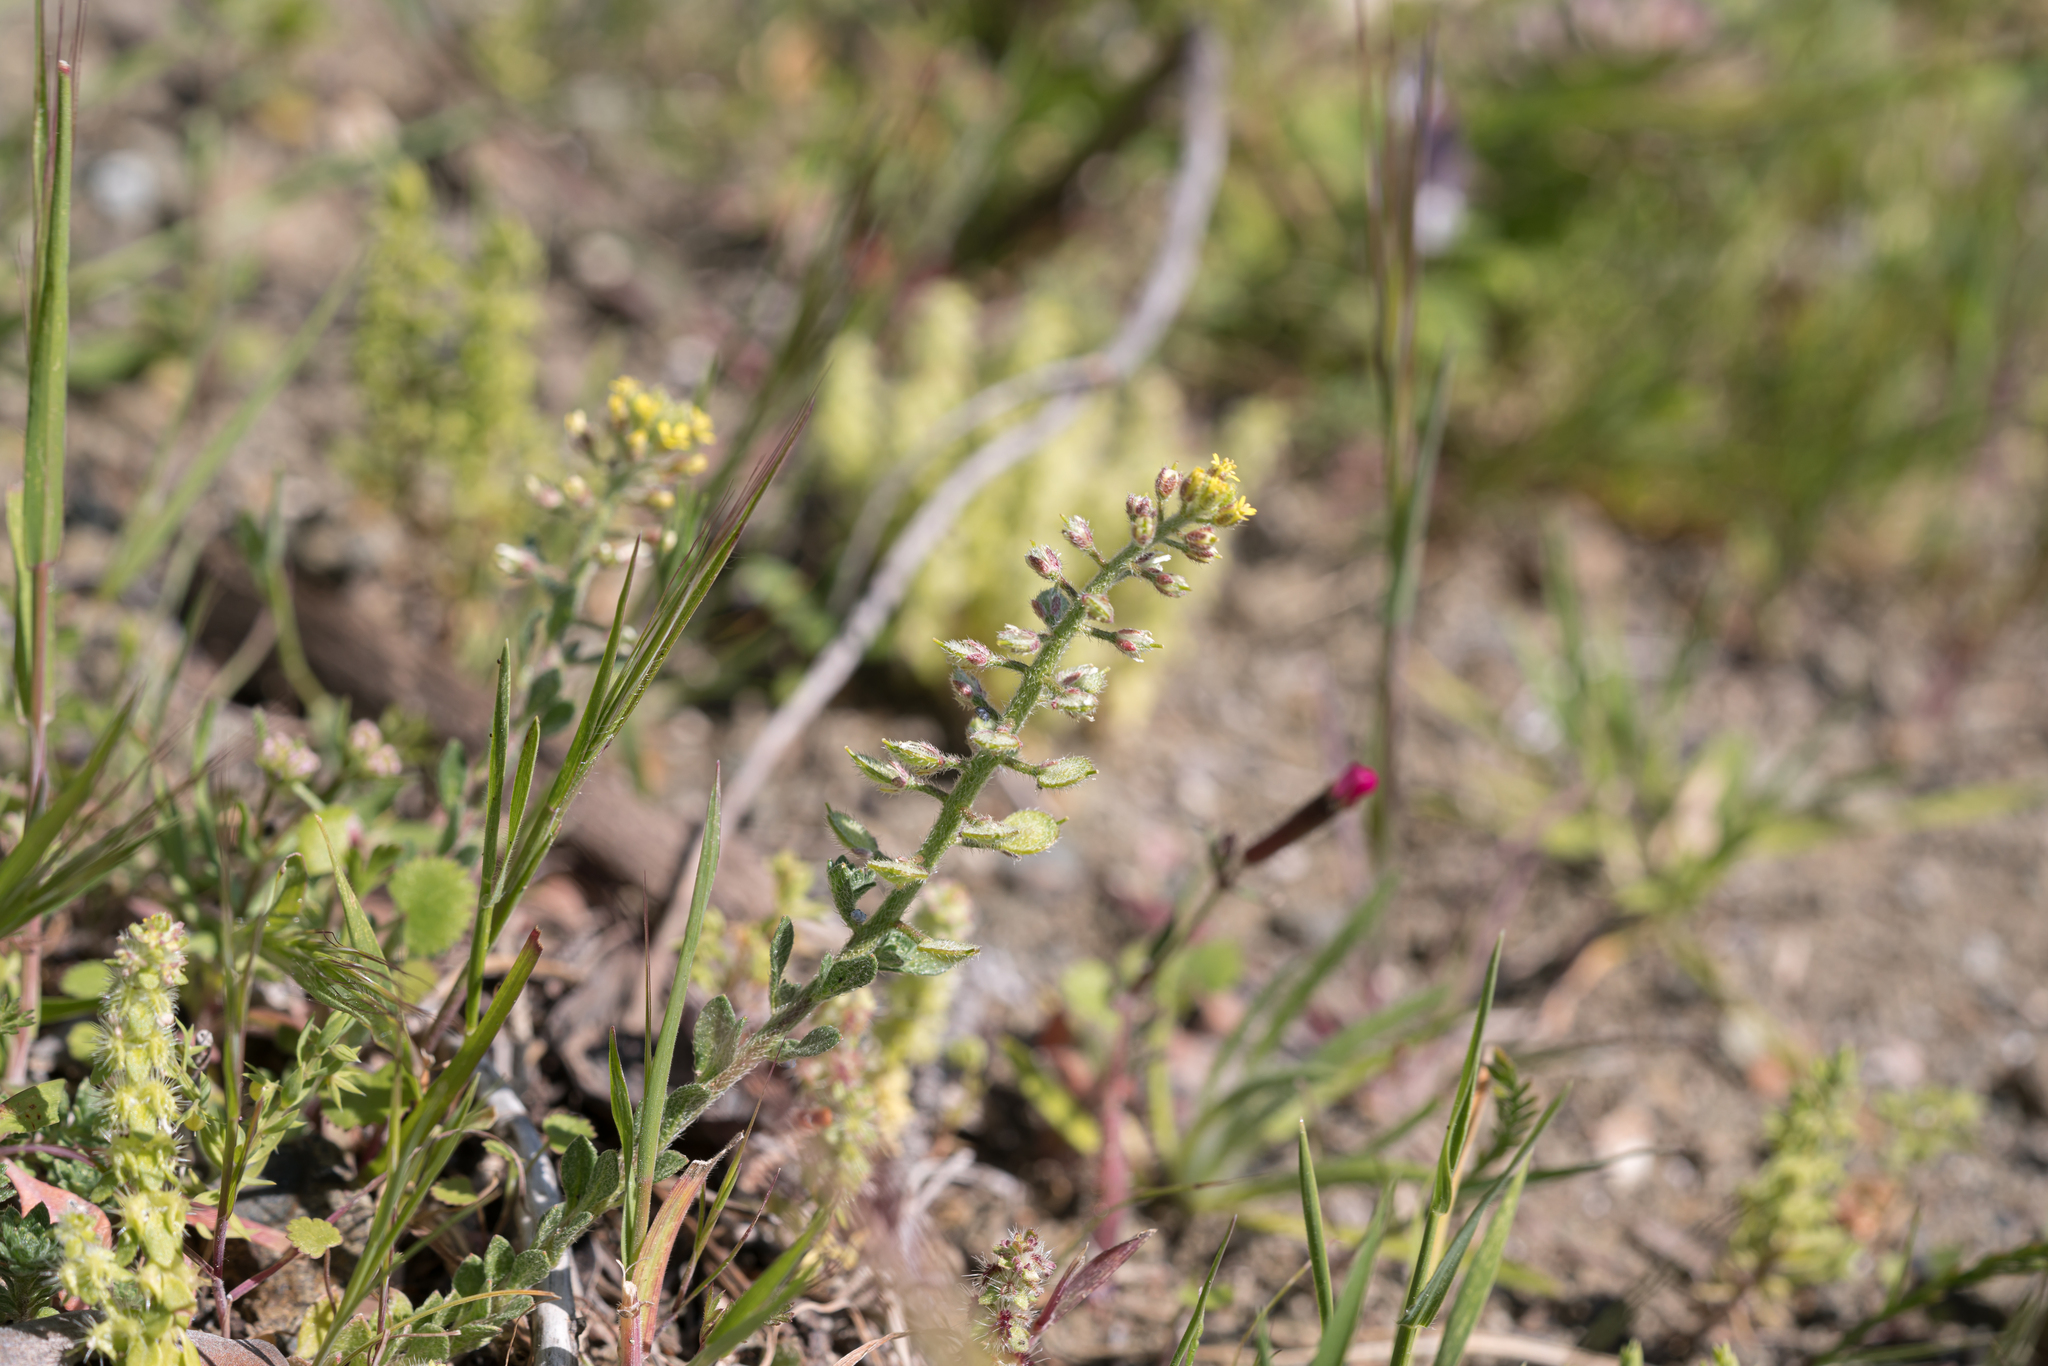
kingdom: Plantae
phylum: Tracheophyta
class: Magnoliopsida
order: Brassicales
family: Brassicaceae
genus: Alyssum
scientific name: Alyssum strigosum
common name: Alyssum
